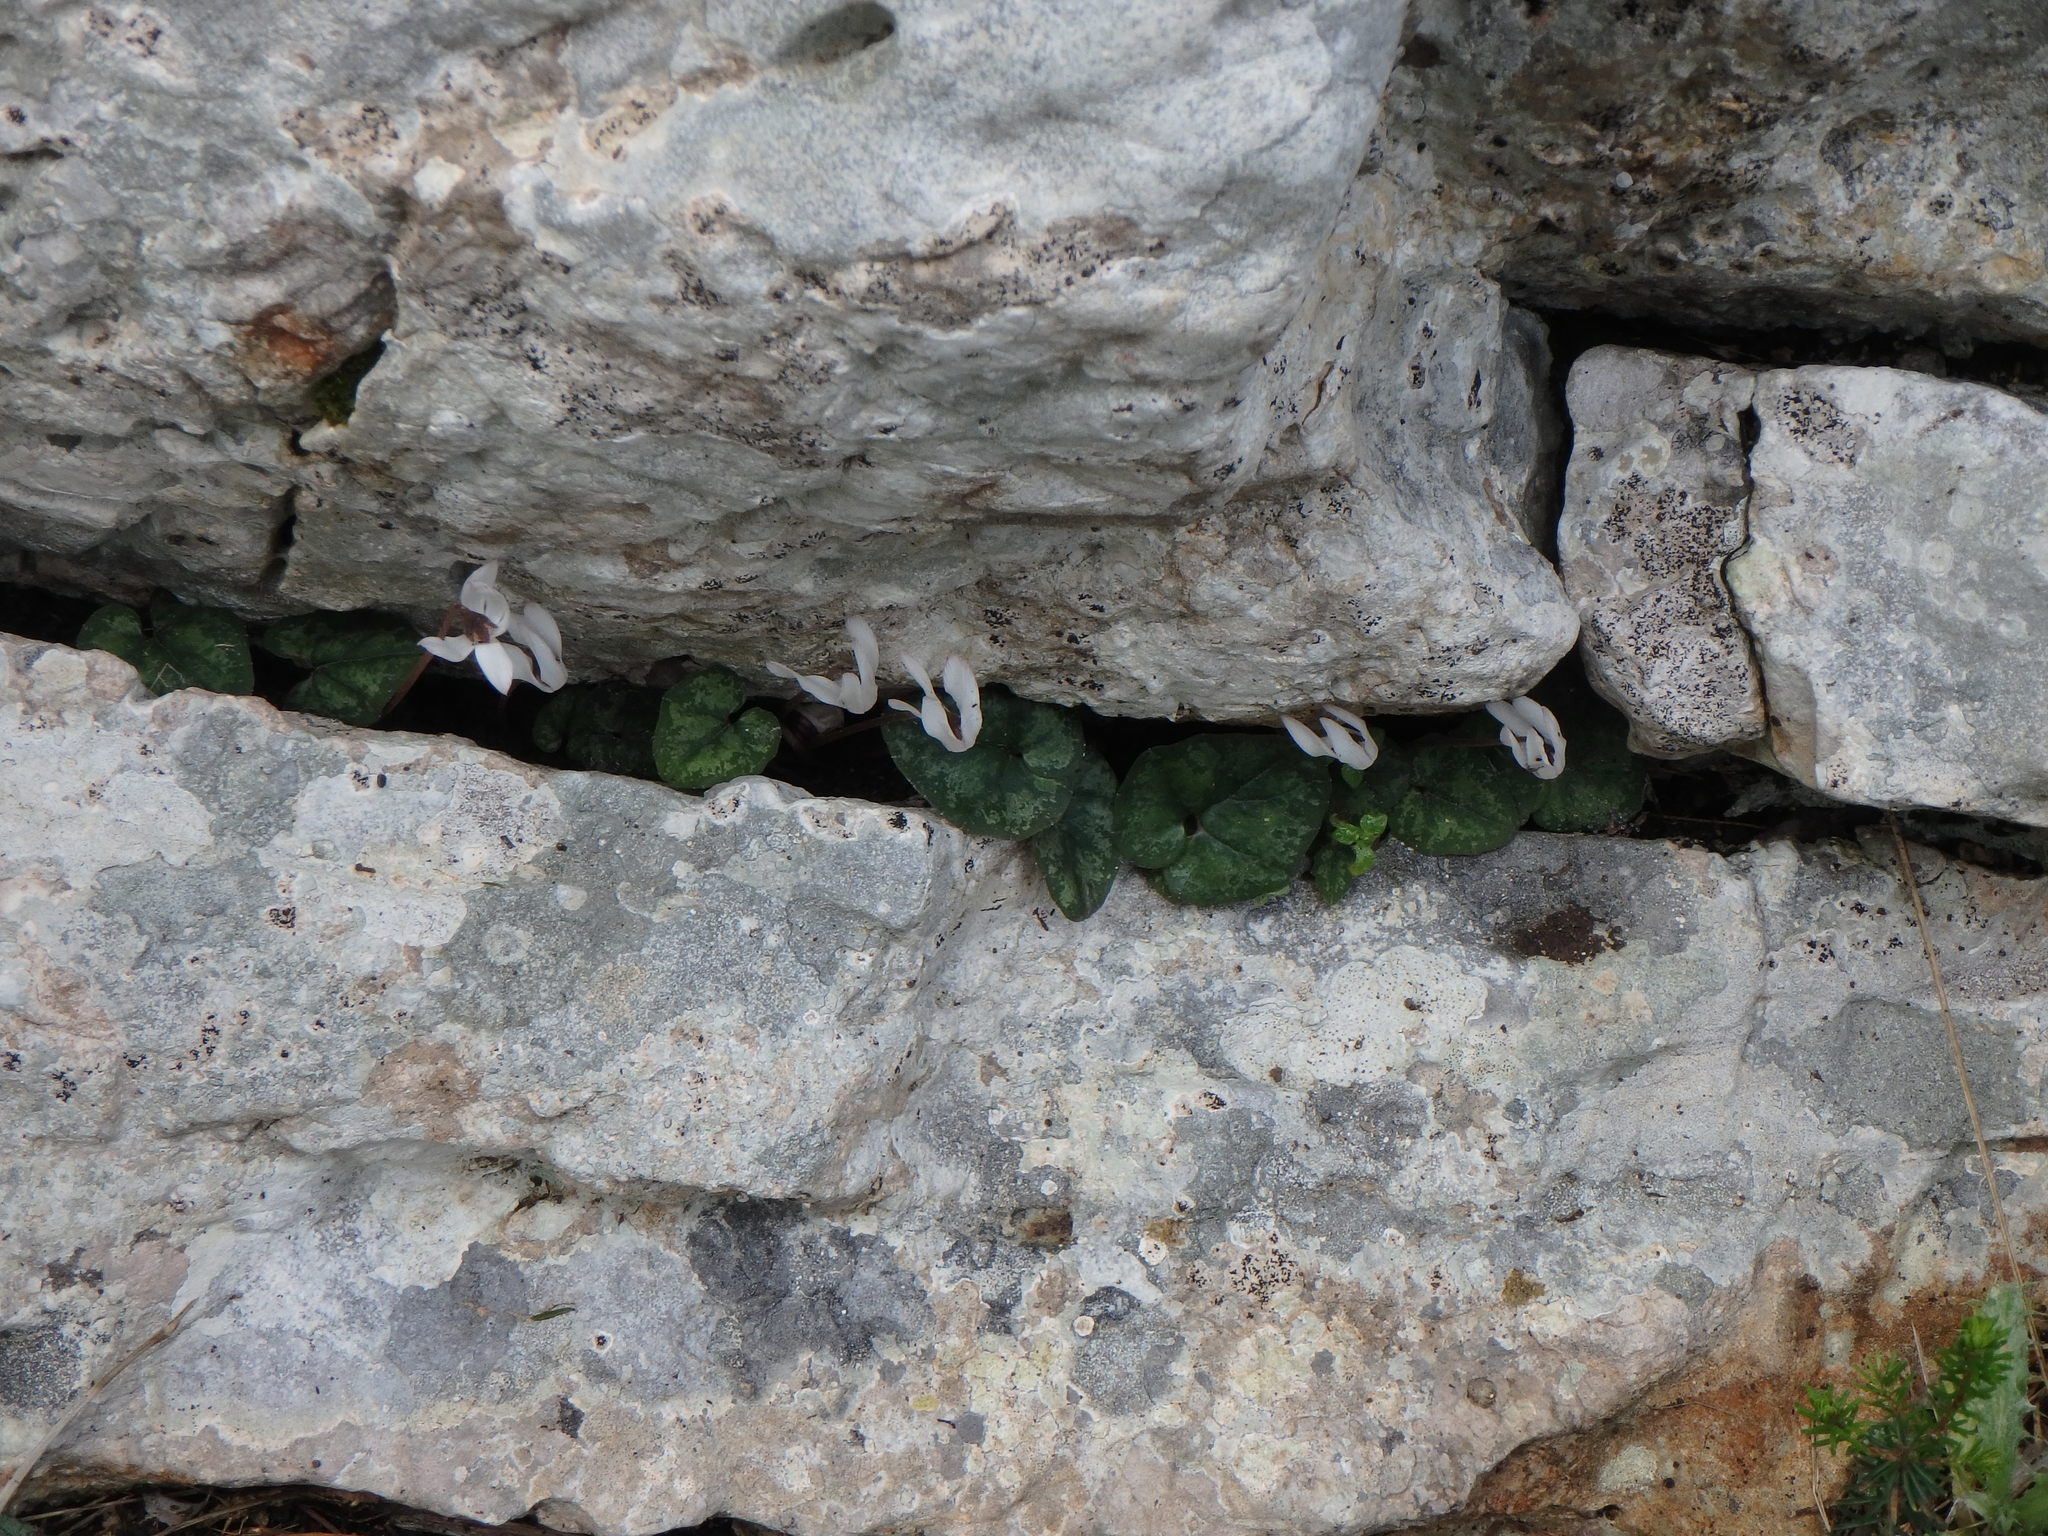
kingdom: Plantae
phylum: Tracheophyta
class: Magnoliopsida
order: Ericales
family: Primulaceae
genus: Cyclamen
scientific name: Cyclamen balearicum
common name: Majorca cyclamen
